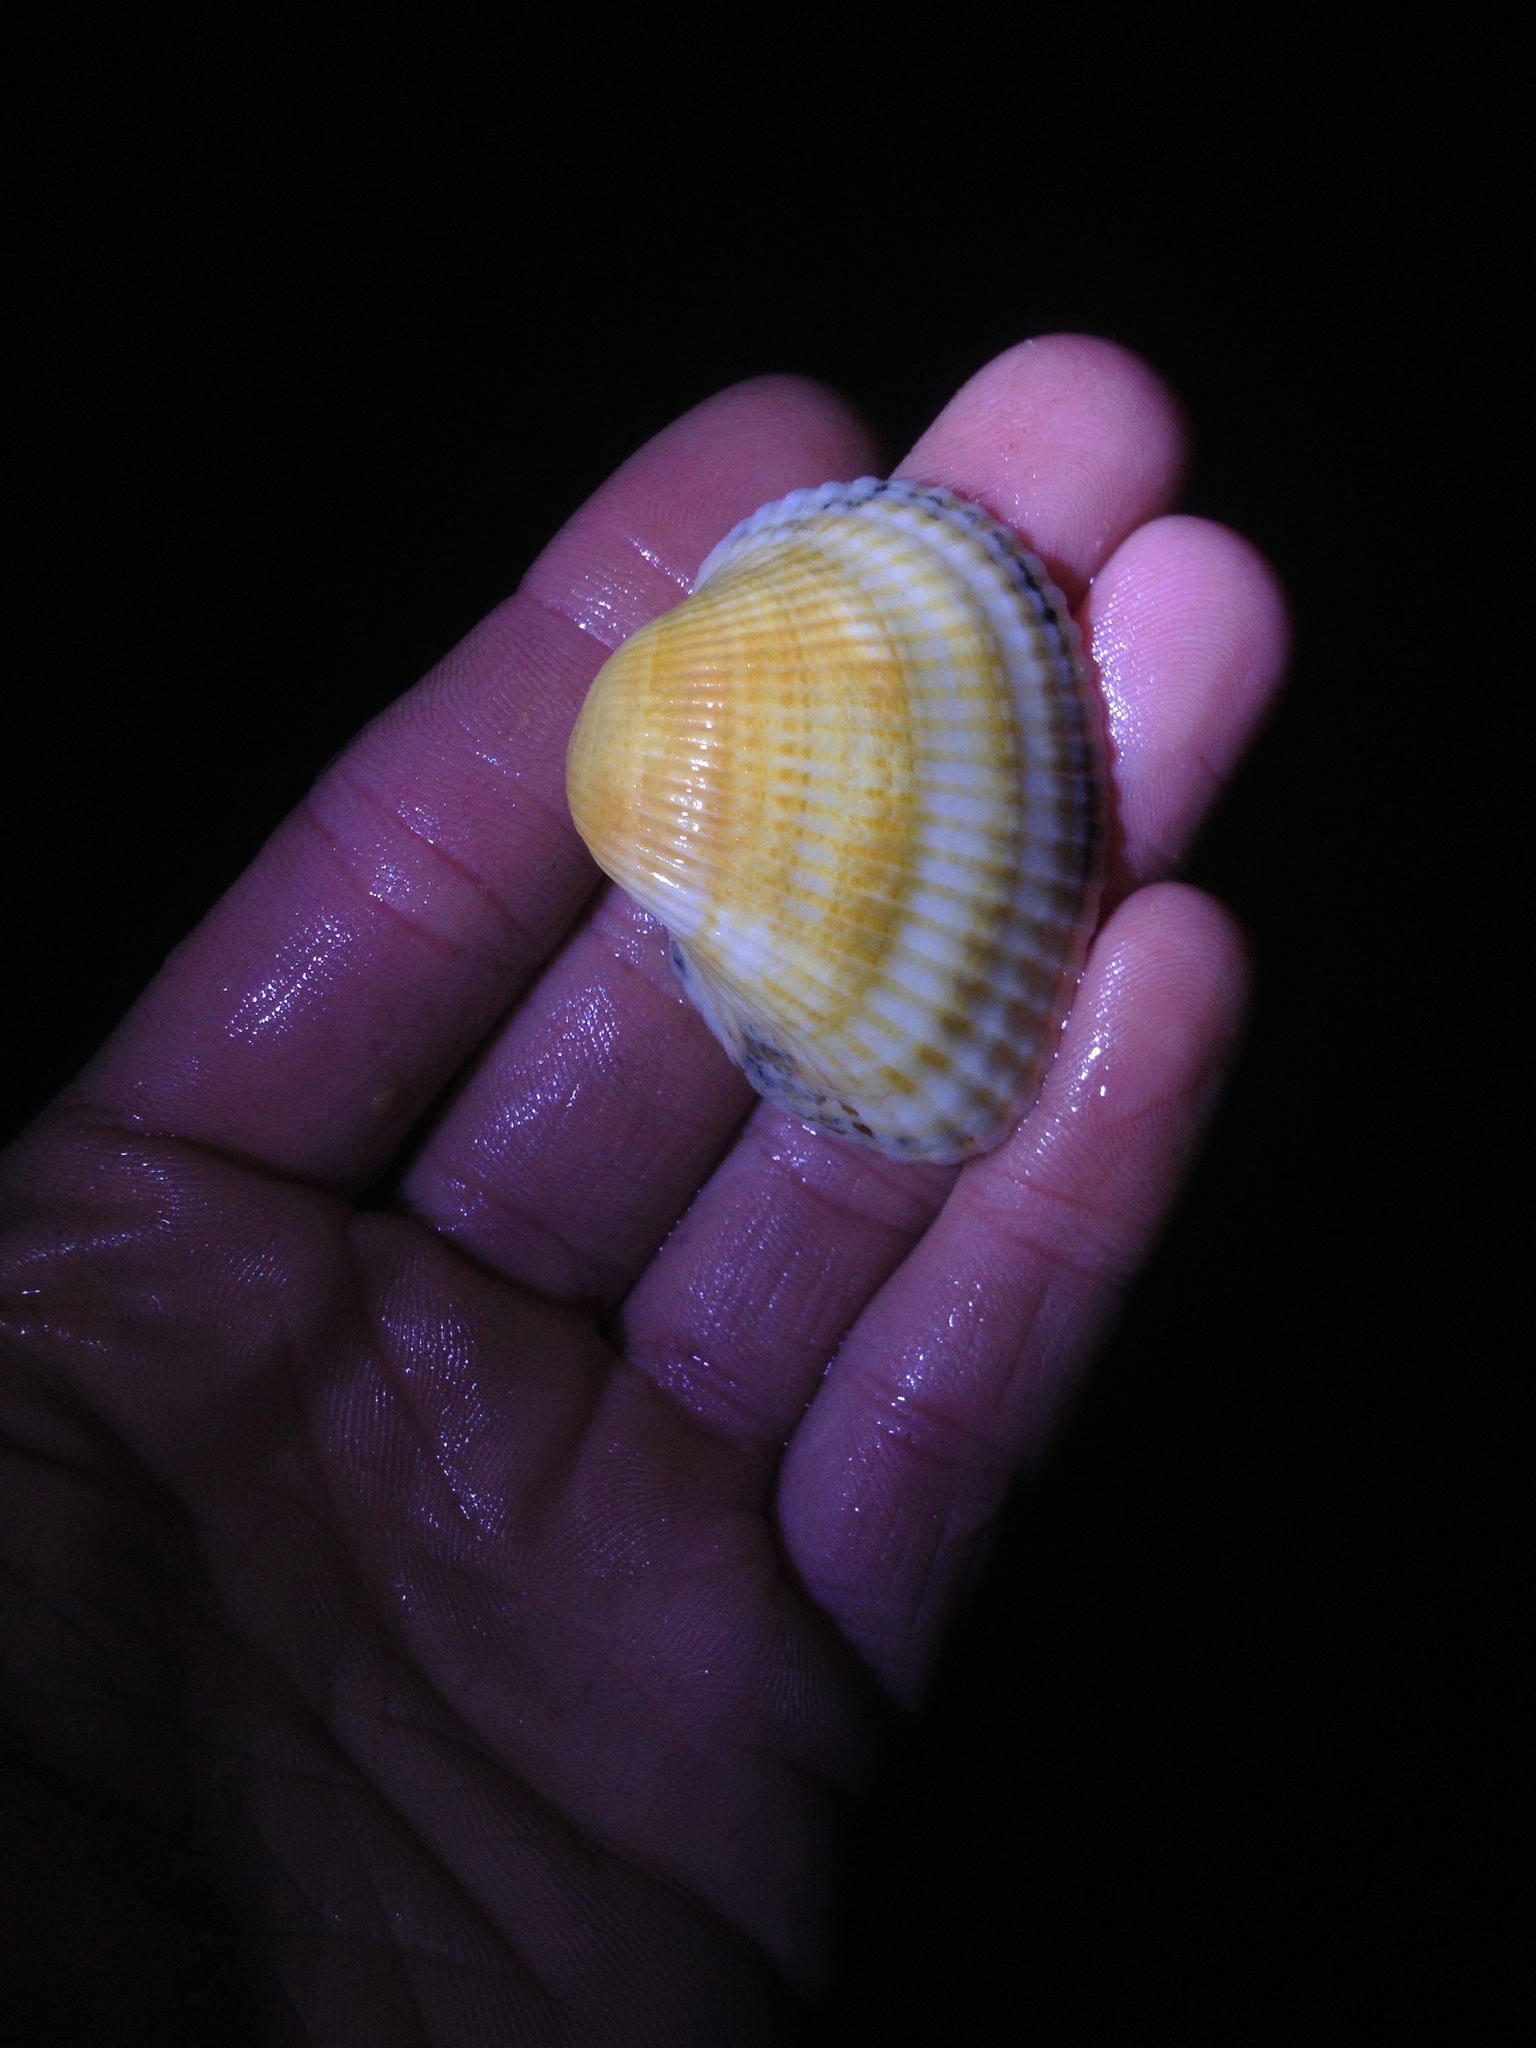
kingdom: Animalia
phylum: Mollusca
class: Bivalvia
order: Arcida
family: Arcidae
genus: Anadara
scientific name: Anadara kagoshimensis
